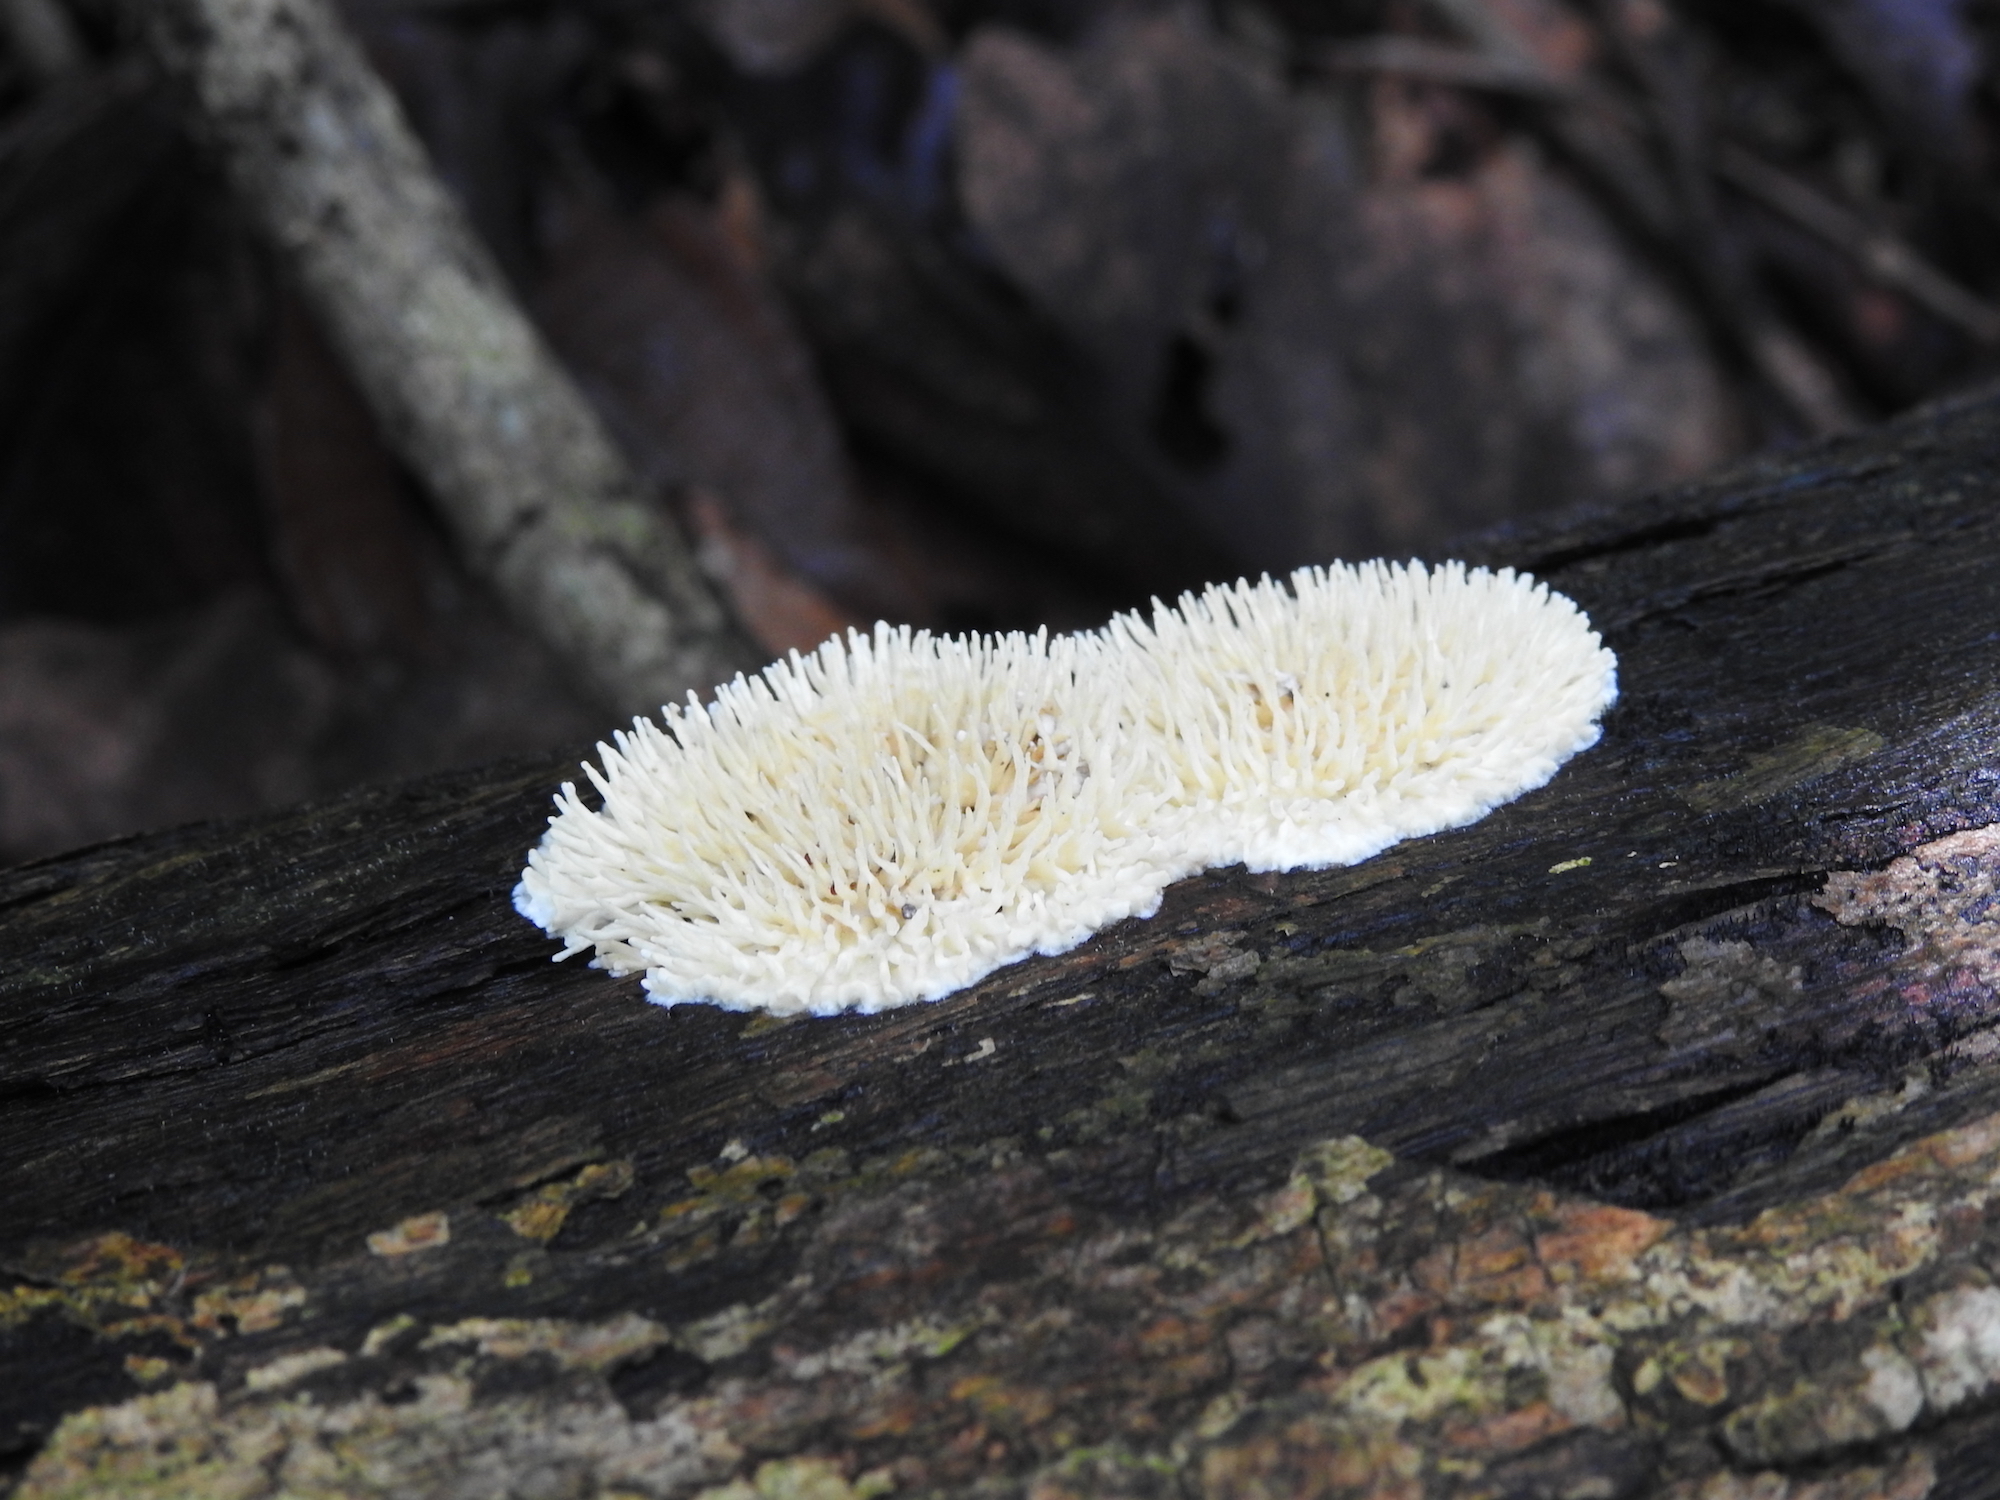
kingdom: Fungi
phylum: Basidiomycota
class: Agaricomycetes
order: Auriculariales
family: Auriculariaceae
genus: Elmerina
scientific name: Elmerina sclerodontia
